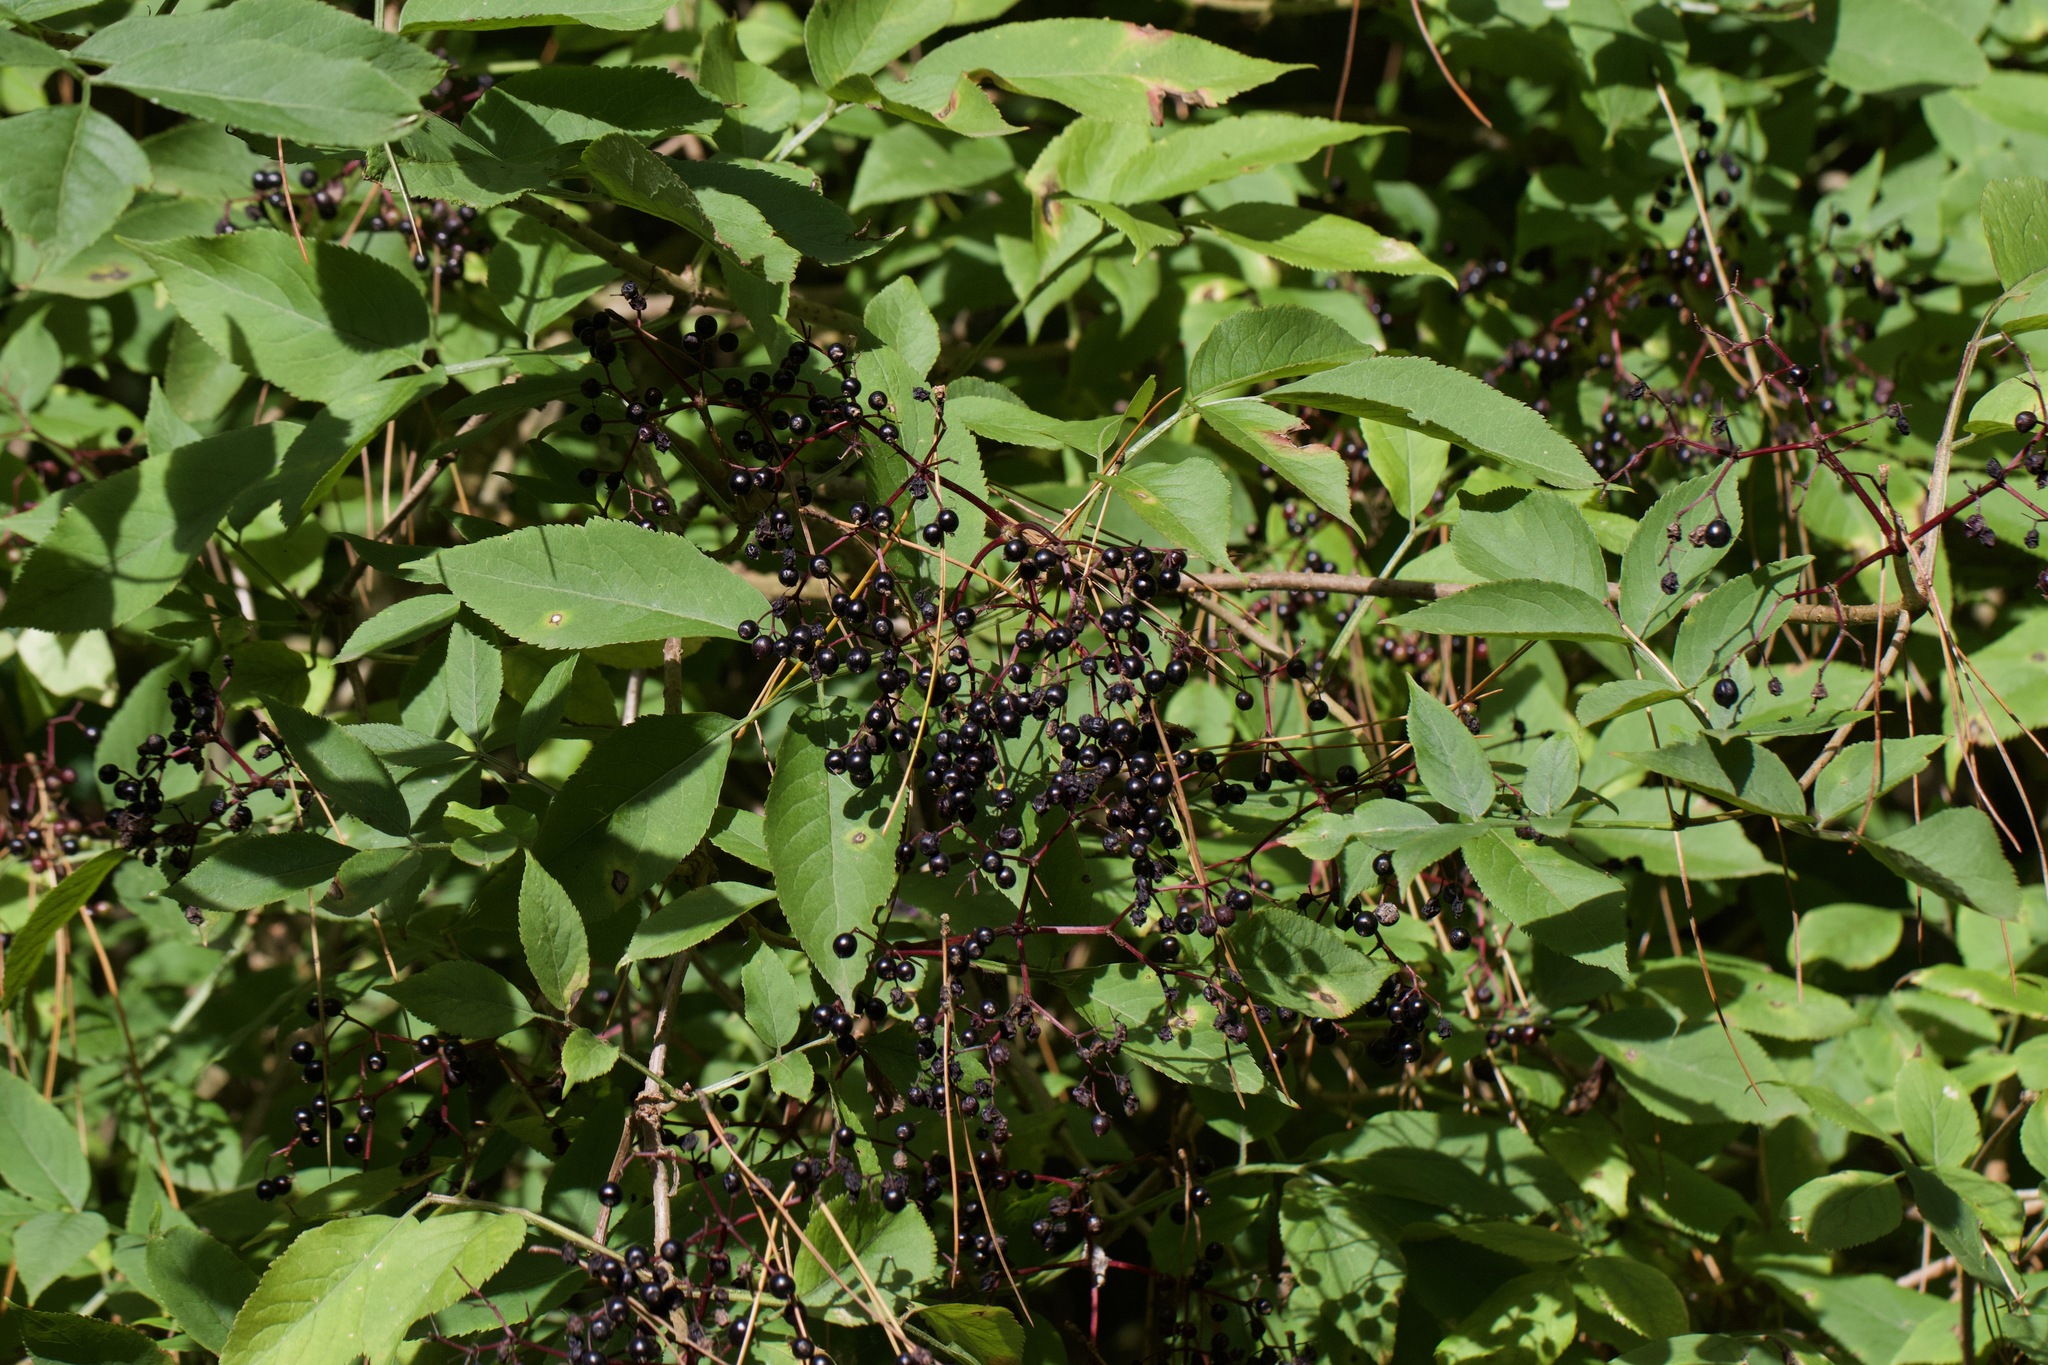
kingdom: Plantae
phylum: Tracheophyta
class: Magnoliopsida
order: Dipsacales
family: Viburnaceae
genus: Sambucus
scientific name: Sambucus nigra
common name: Elder
